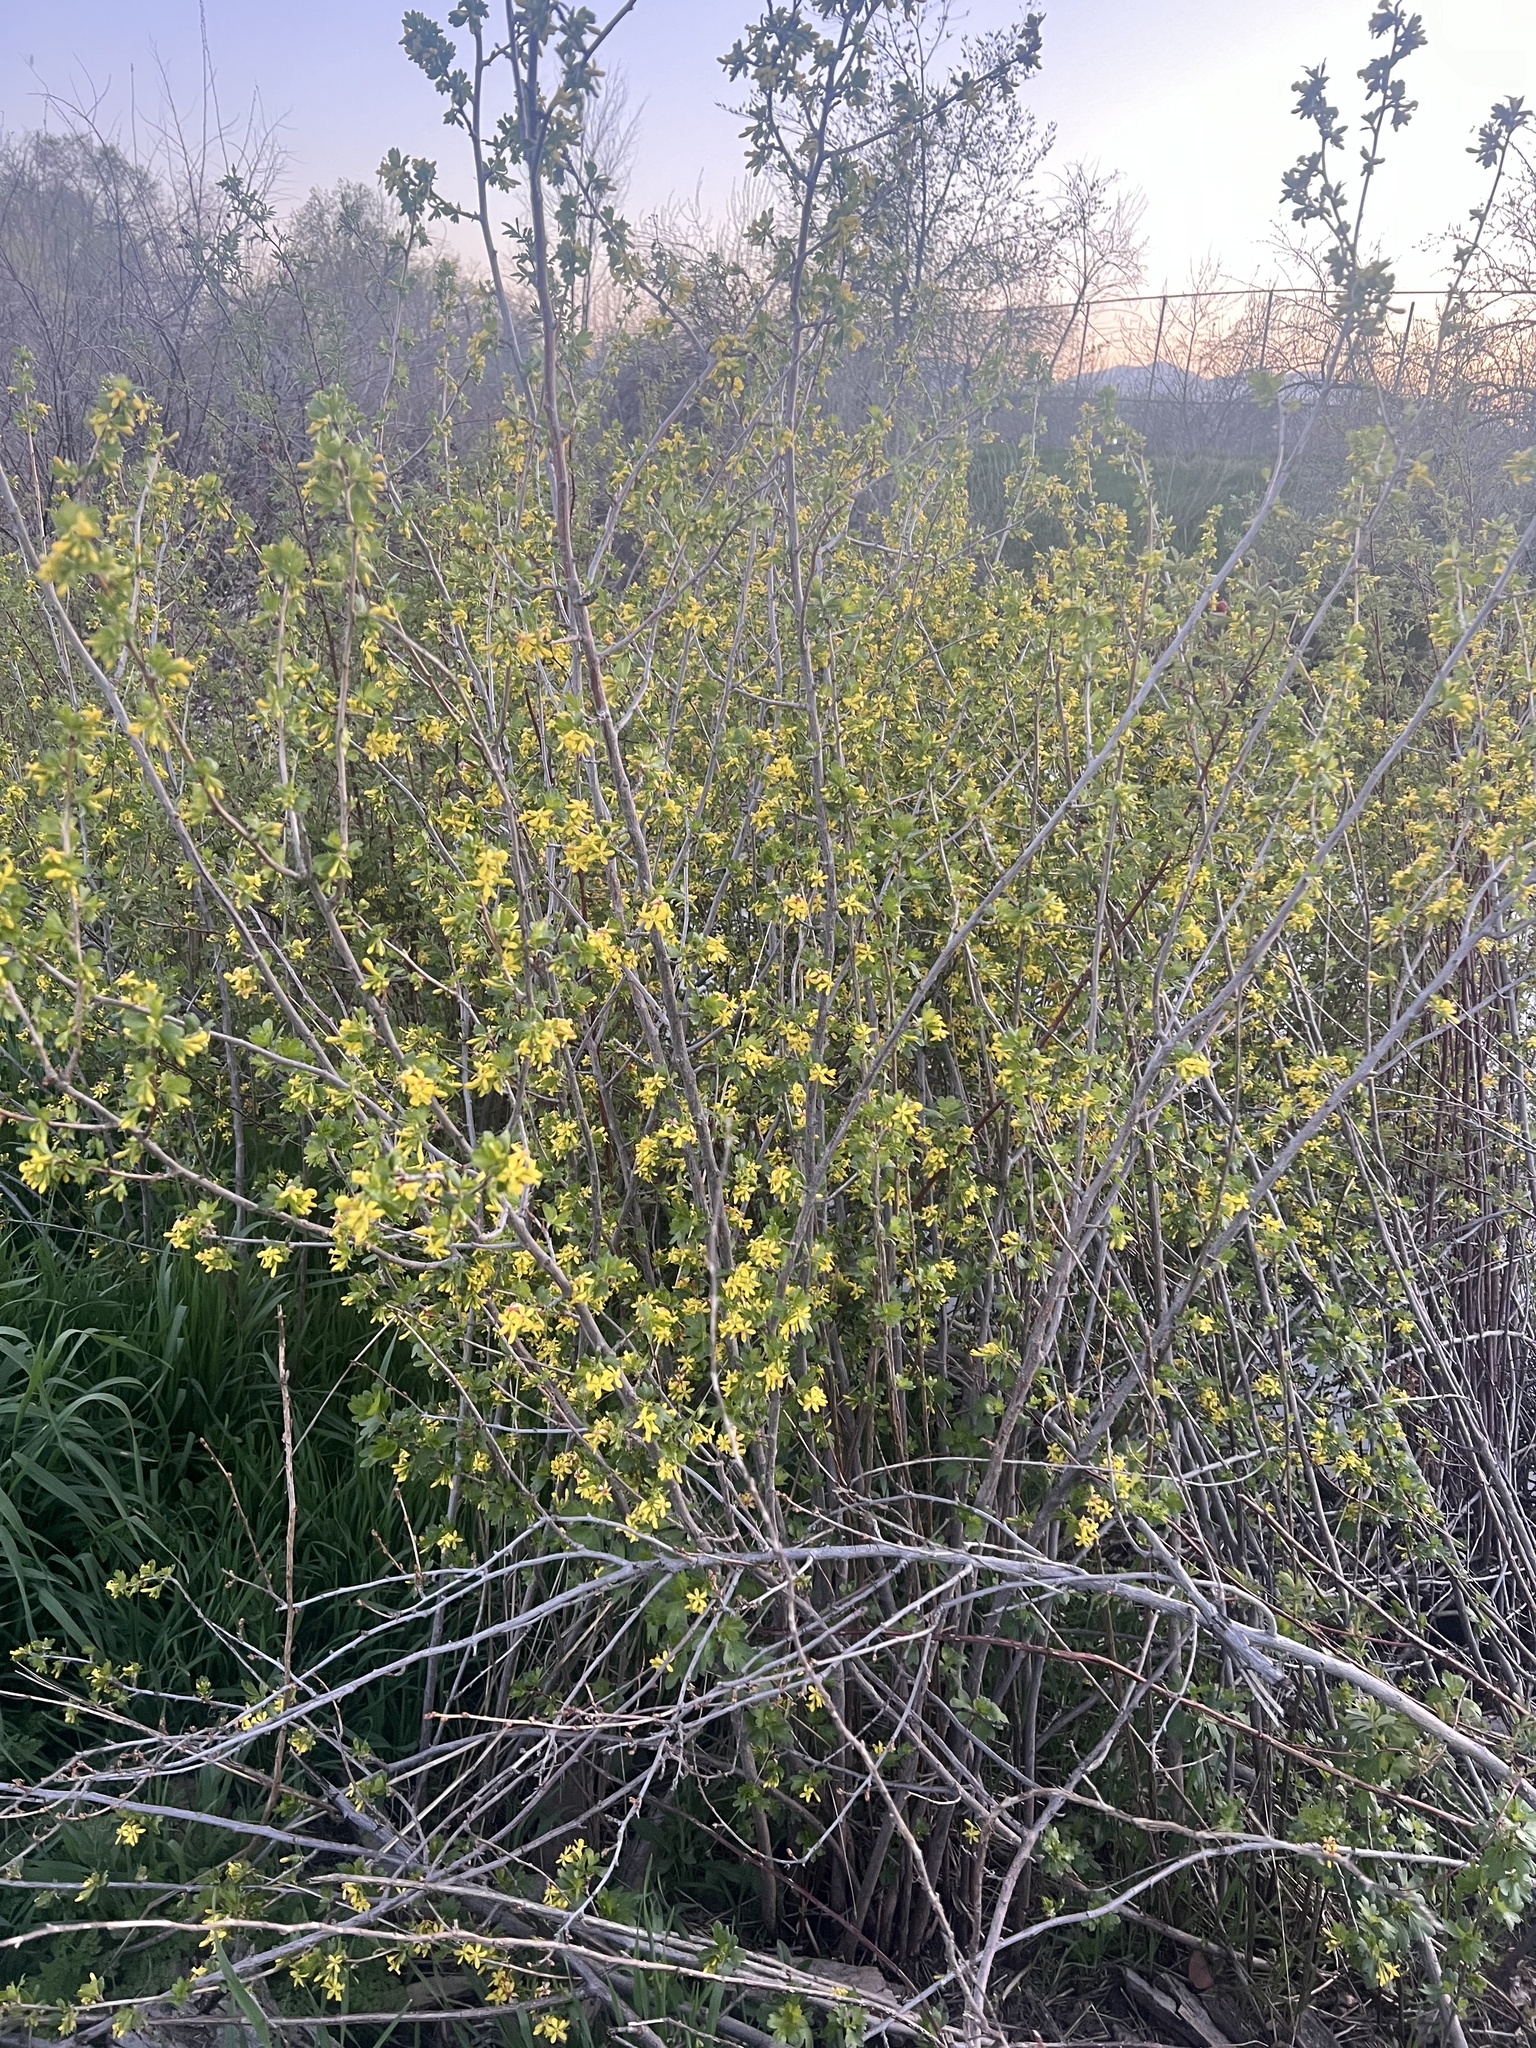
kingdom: Plantae
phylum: Tracheophyta
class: Magnoliopsida
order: Saxifragales
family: Grossulariaceae
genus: Ribes
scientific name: Ribes aureum
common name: Golden currant
